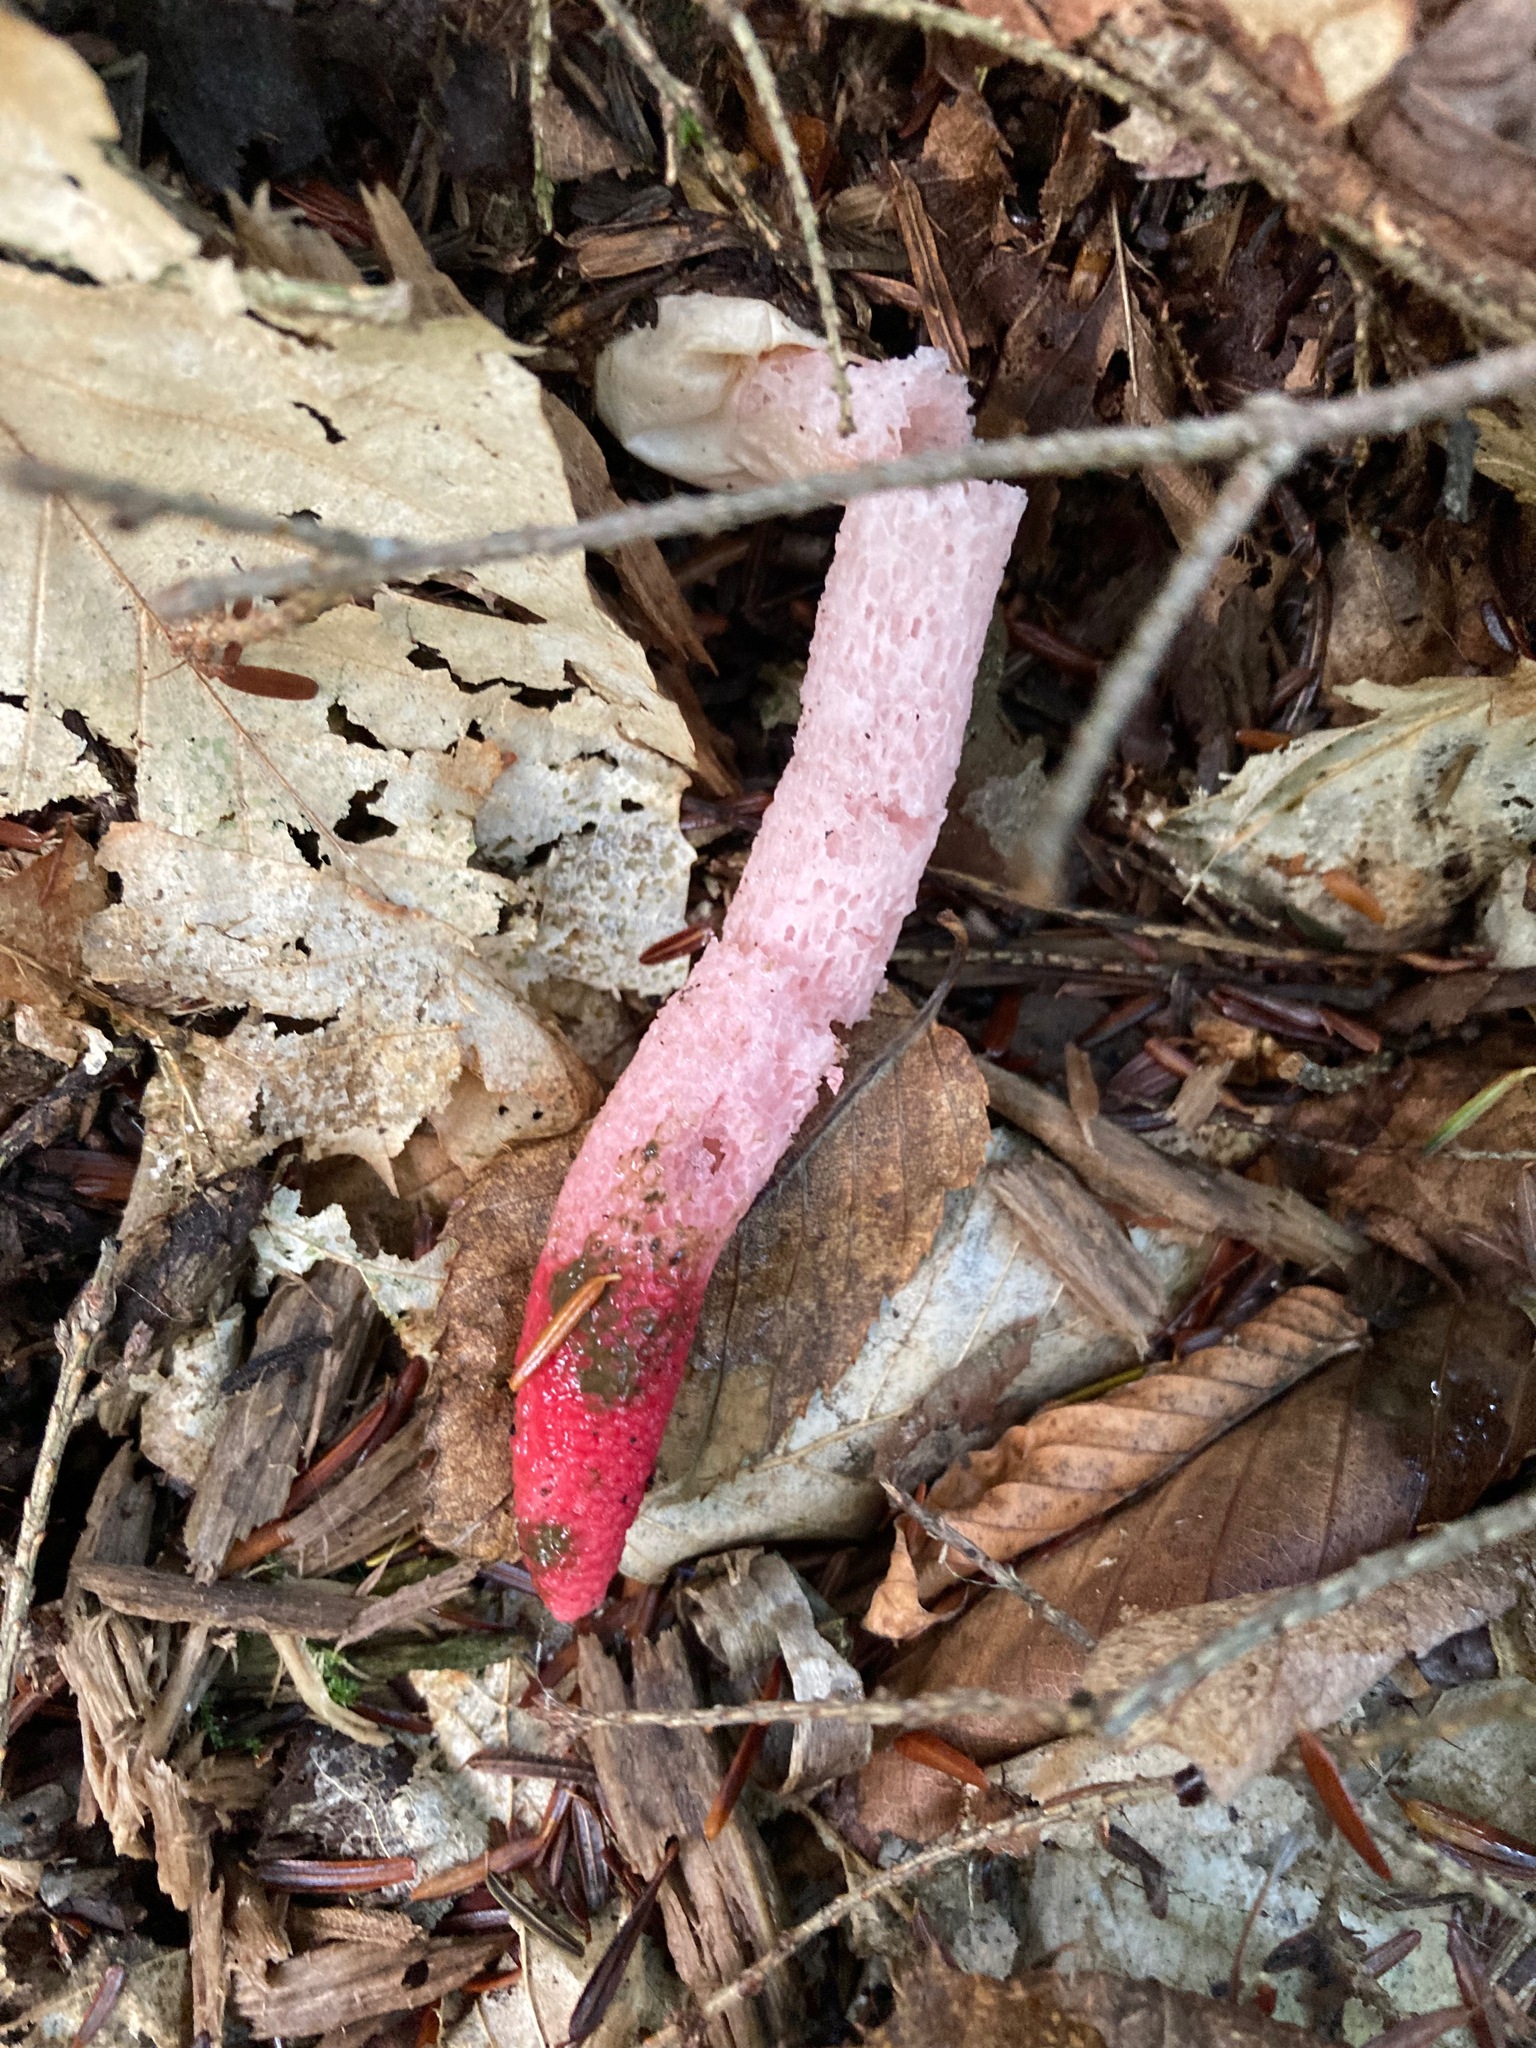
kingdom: Fungi
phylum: Basidiomycota
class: Agaricomycetes
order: Phallales
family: Phallaceae
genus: Mutinus
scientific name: Mutinus ravenelii
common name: Red stinkhorn
